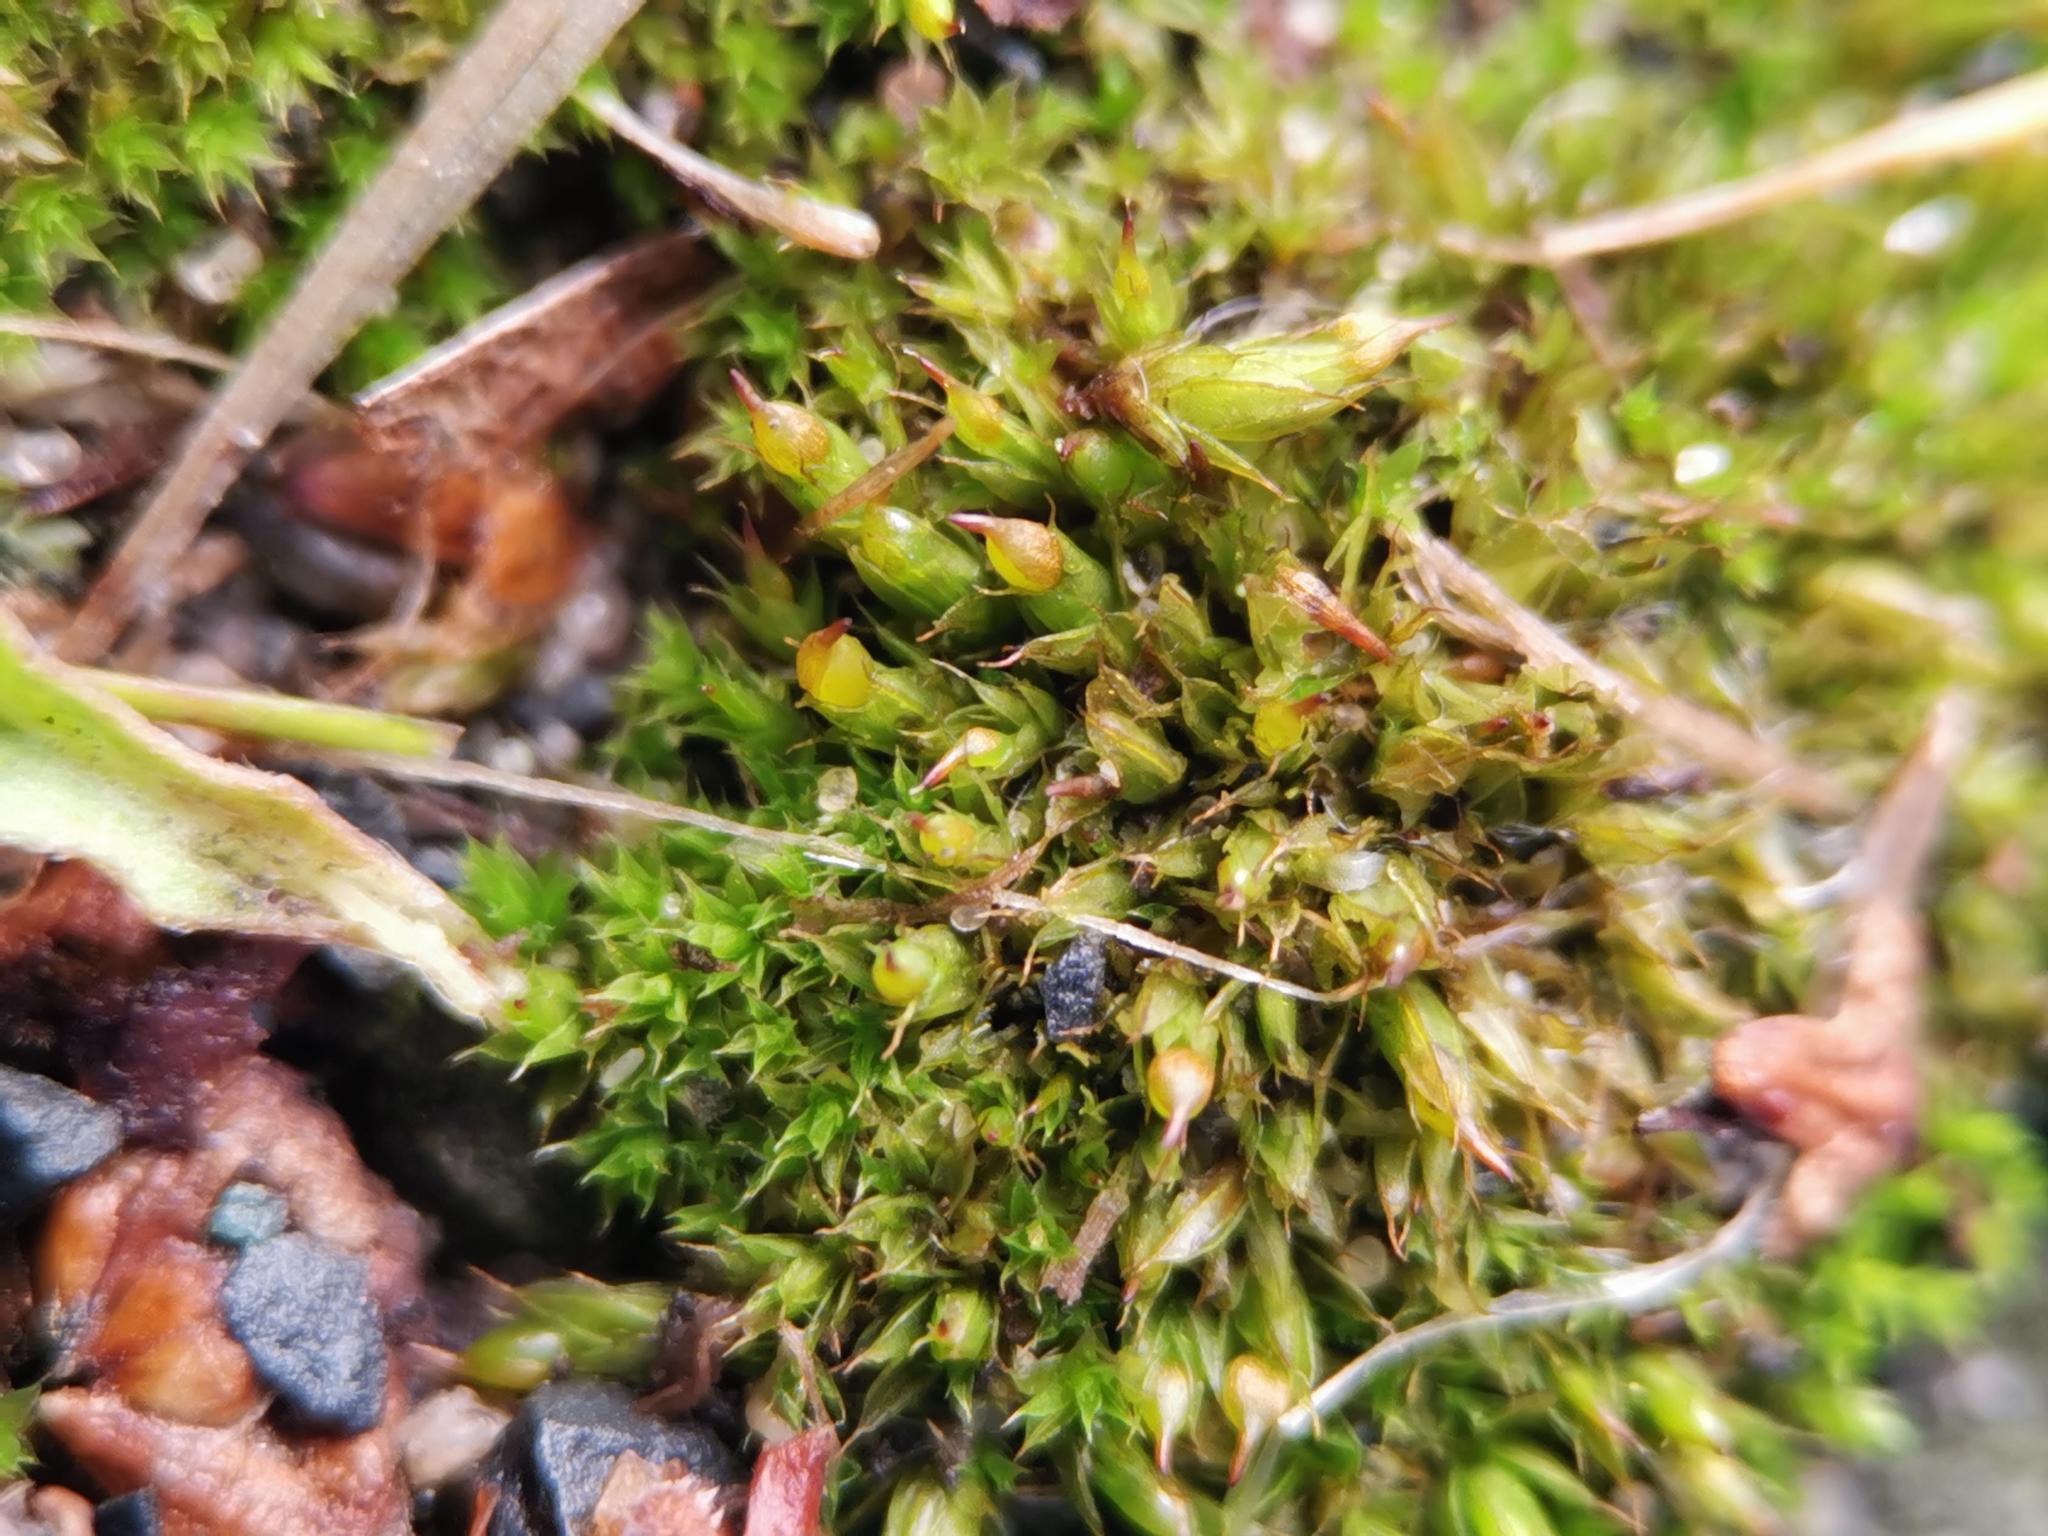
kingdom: Plantae
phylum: Bryophyta
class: Bryopsida
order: Pottiales
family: Pottiaceae
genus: Tortula
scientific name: Tortula protobryoides
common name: Tall pottia
